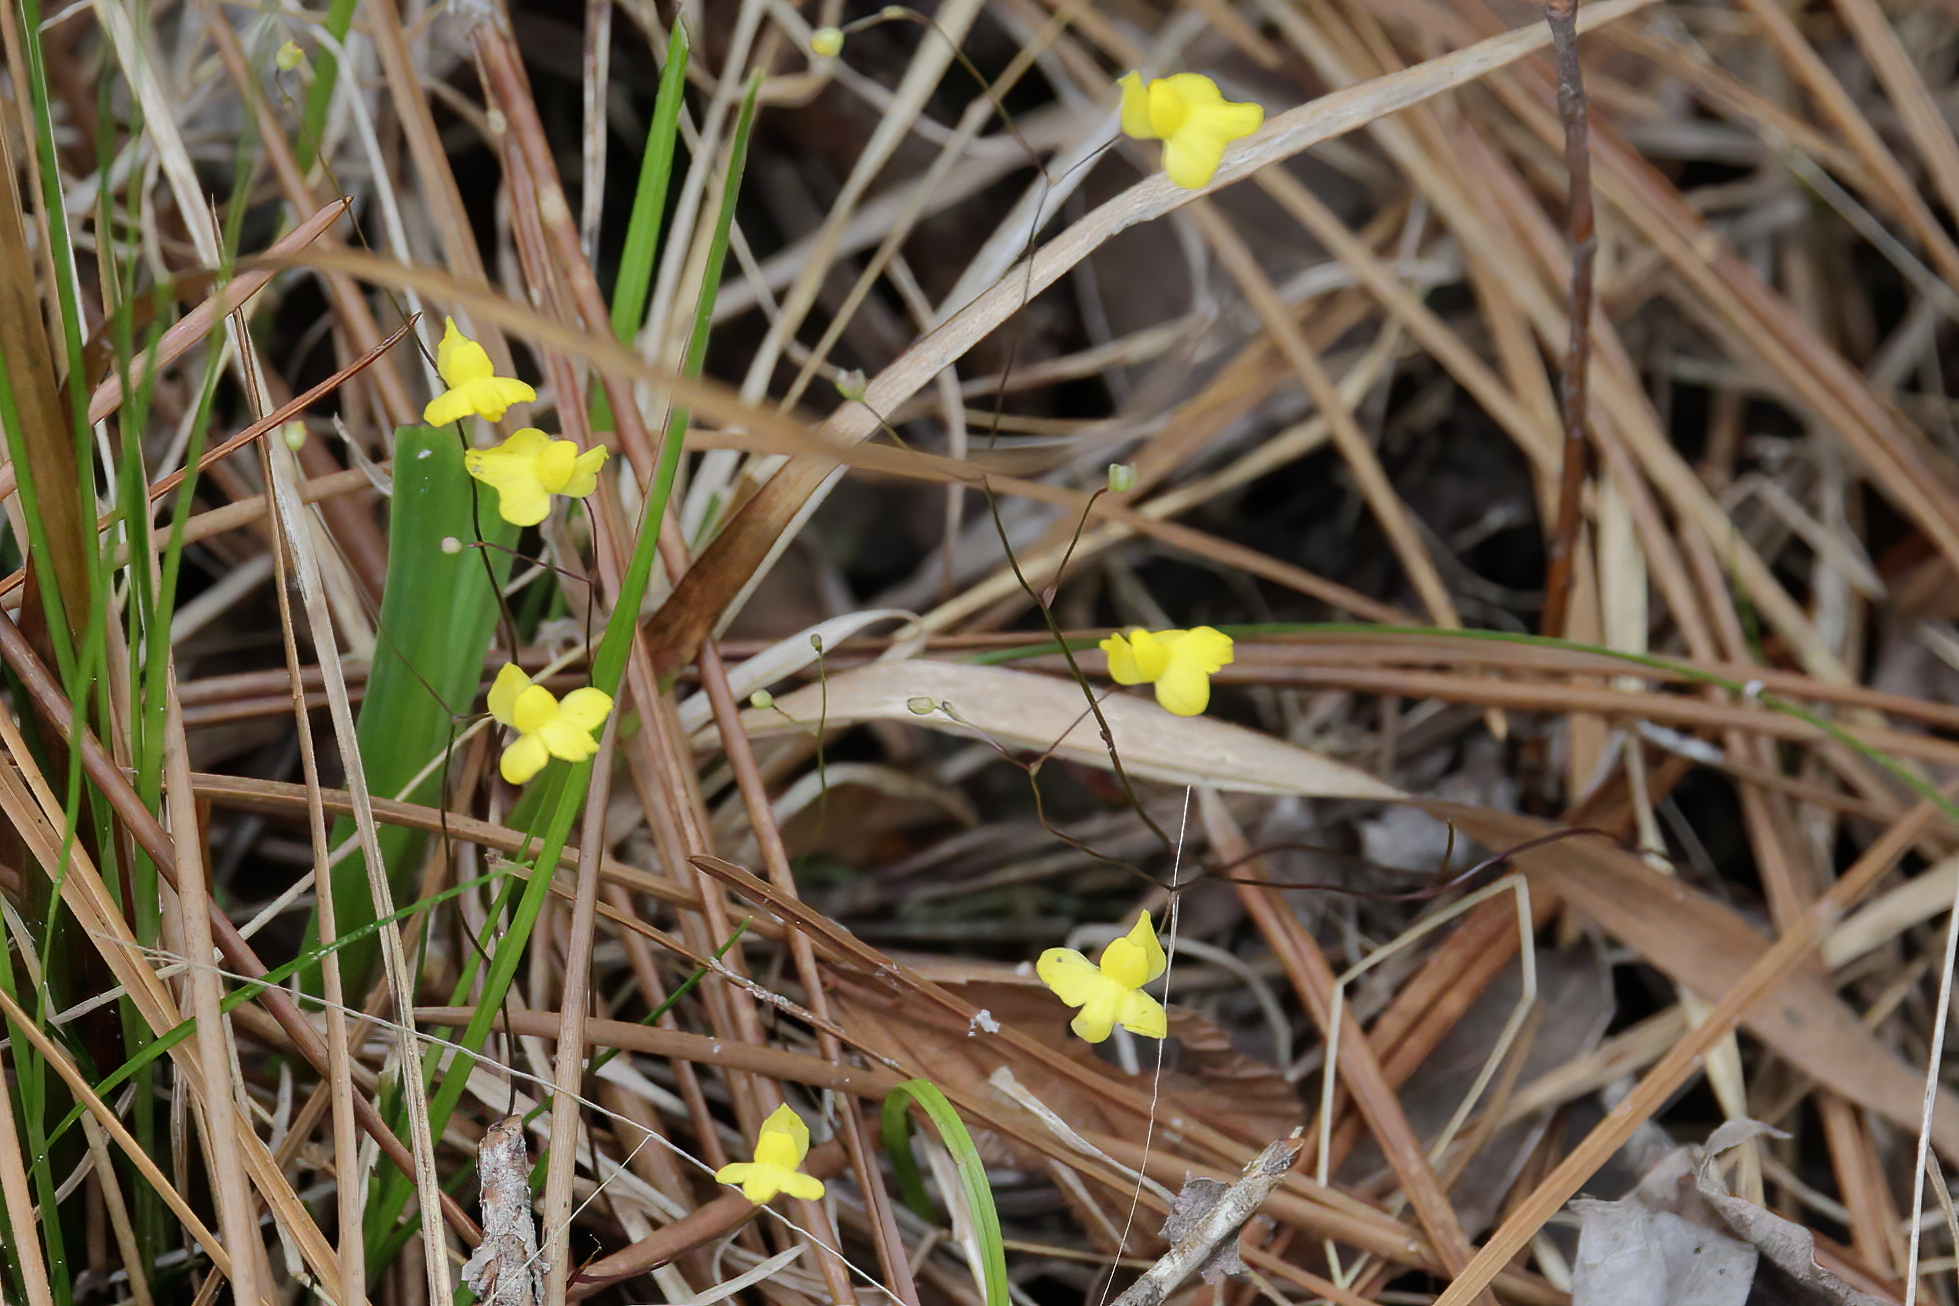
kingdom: Plantae
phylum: Tracheophyta
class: Magnoliopsida
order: Lamiales
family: Lentibulariaceae
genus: Utricularia
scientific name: Utricularia subulata
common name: Tiny bladderwort
